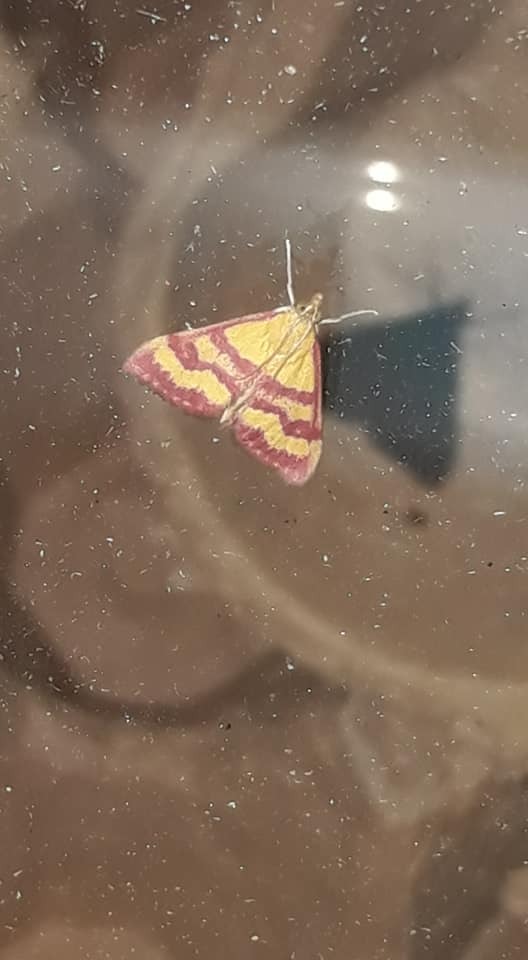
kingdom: Animalia
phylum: Arthropoda
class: Insecta
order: Lepidoptera
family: Crambidae
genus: Pyrausta
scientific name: Pyrausta virginalis
